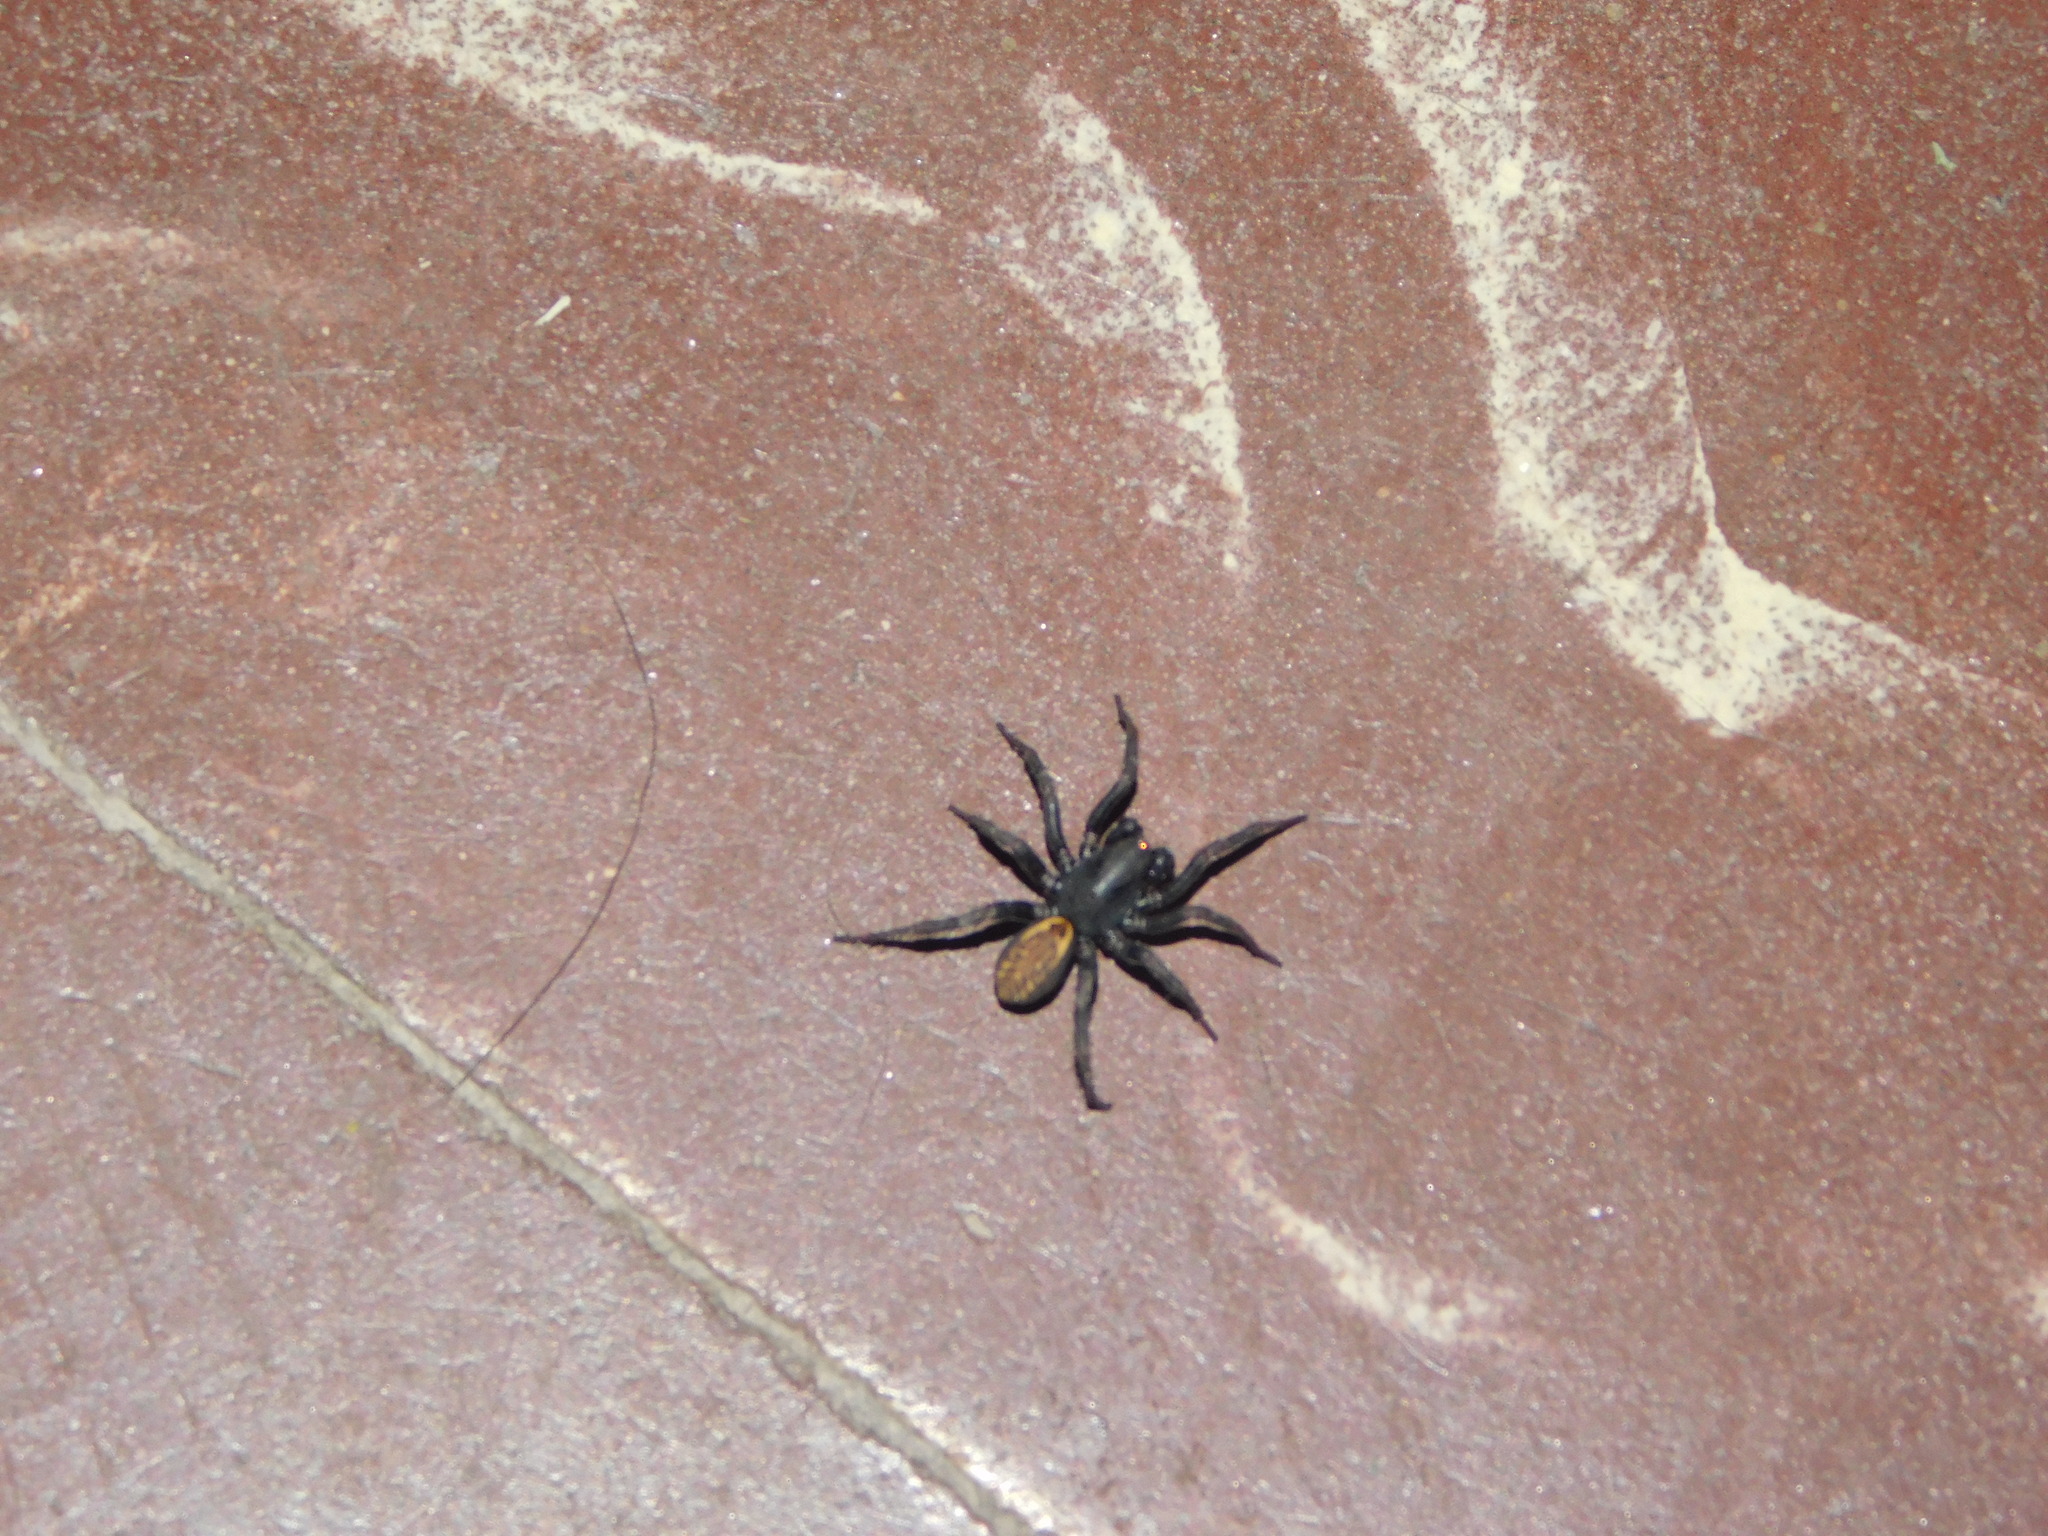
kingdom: Animalia
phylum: Arthropoda
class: Arachnida
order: Araneae
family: Zodariidae
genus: Cybaeodamus
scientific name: Cybaeodamus meridionalis
